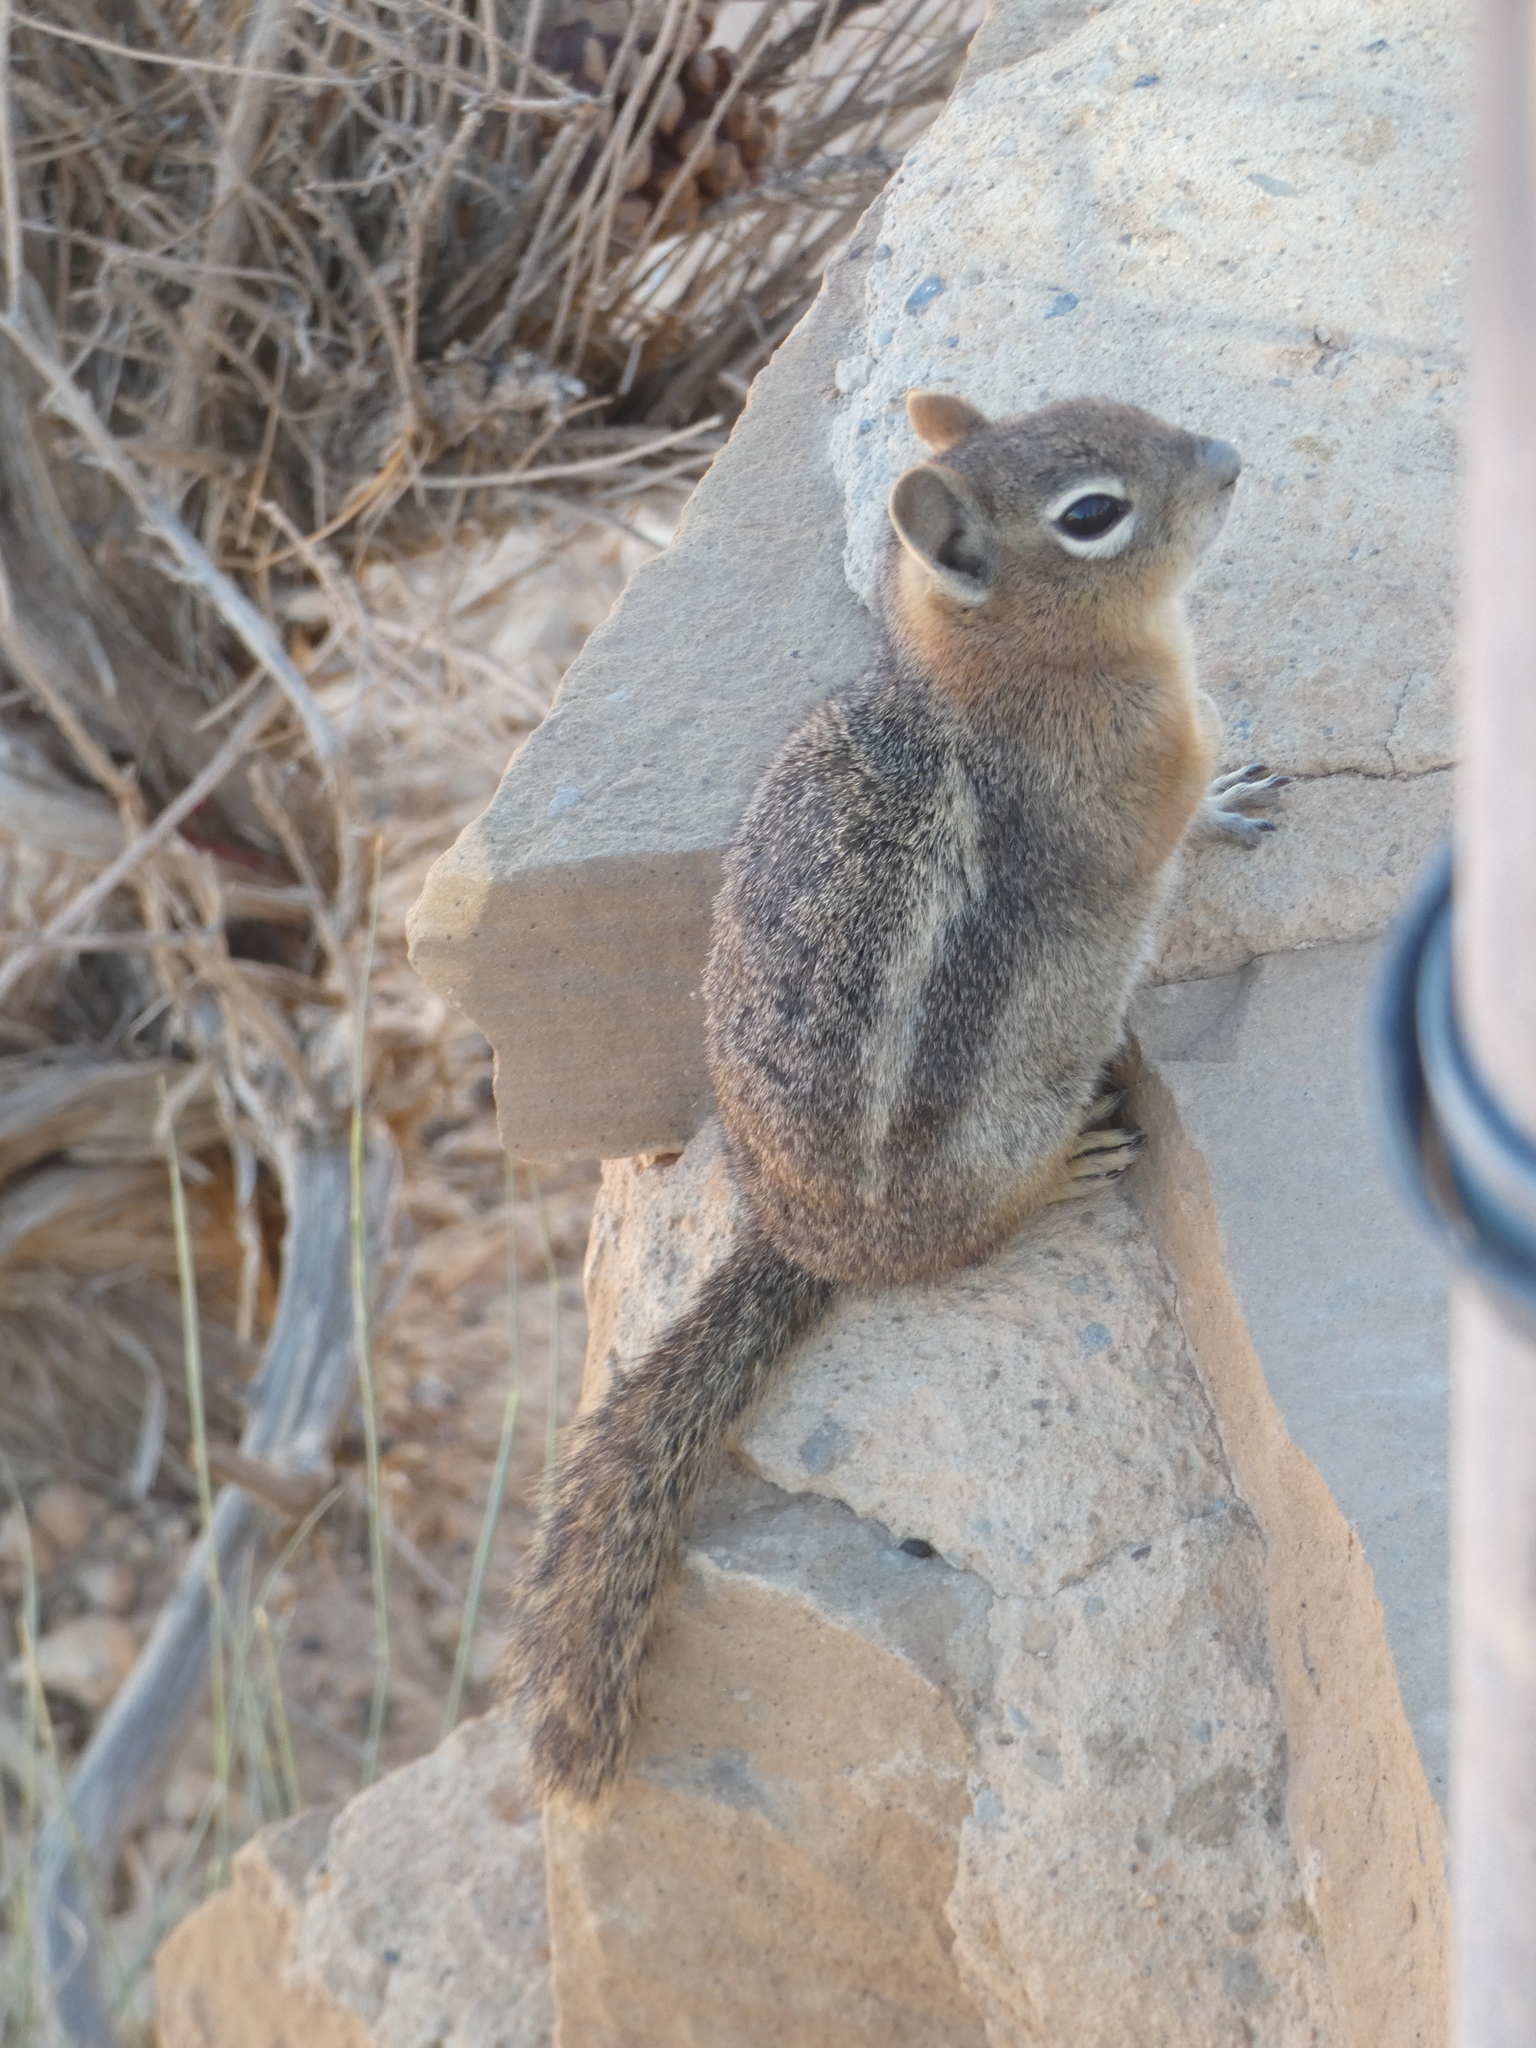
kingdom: Animalia
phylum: Chordata
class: Mammalia
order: Rodentia
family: Sciuridae
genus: Callospermophilus
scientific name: Callospermophilus lateralis
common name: Golden-mantled ground squirrel
